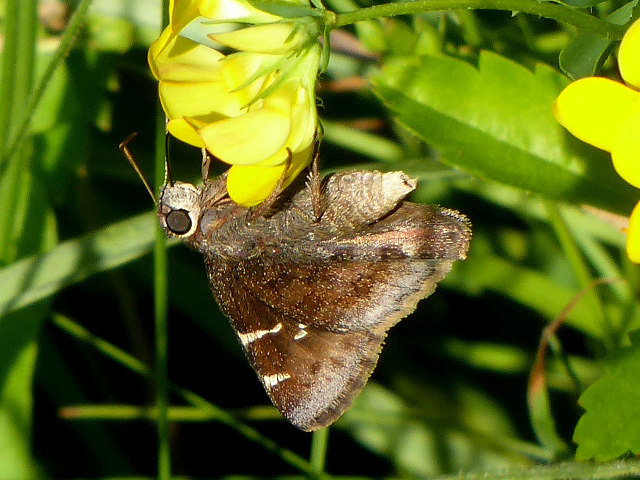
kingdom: Animalia
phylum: Arthropoda
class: Insecta
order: Lepidoptera
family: Hesperiidae
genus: Thorybes
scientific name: Thorybes daunus
